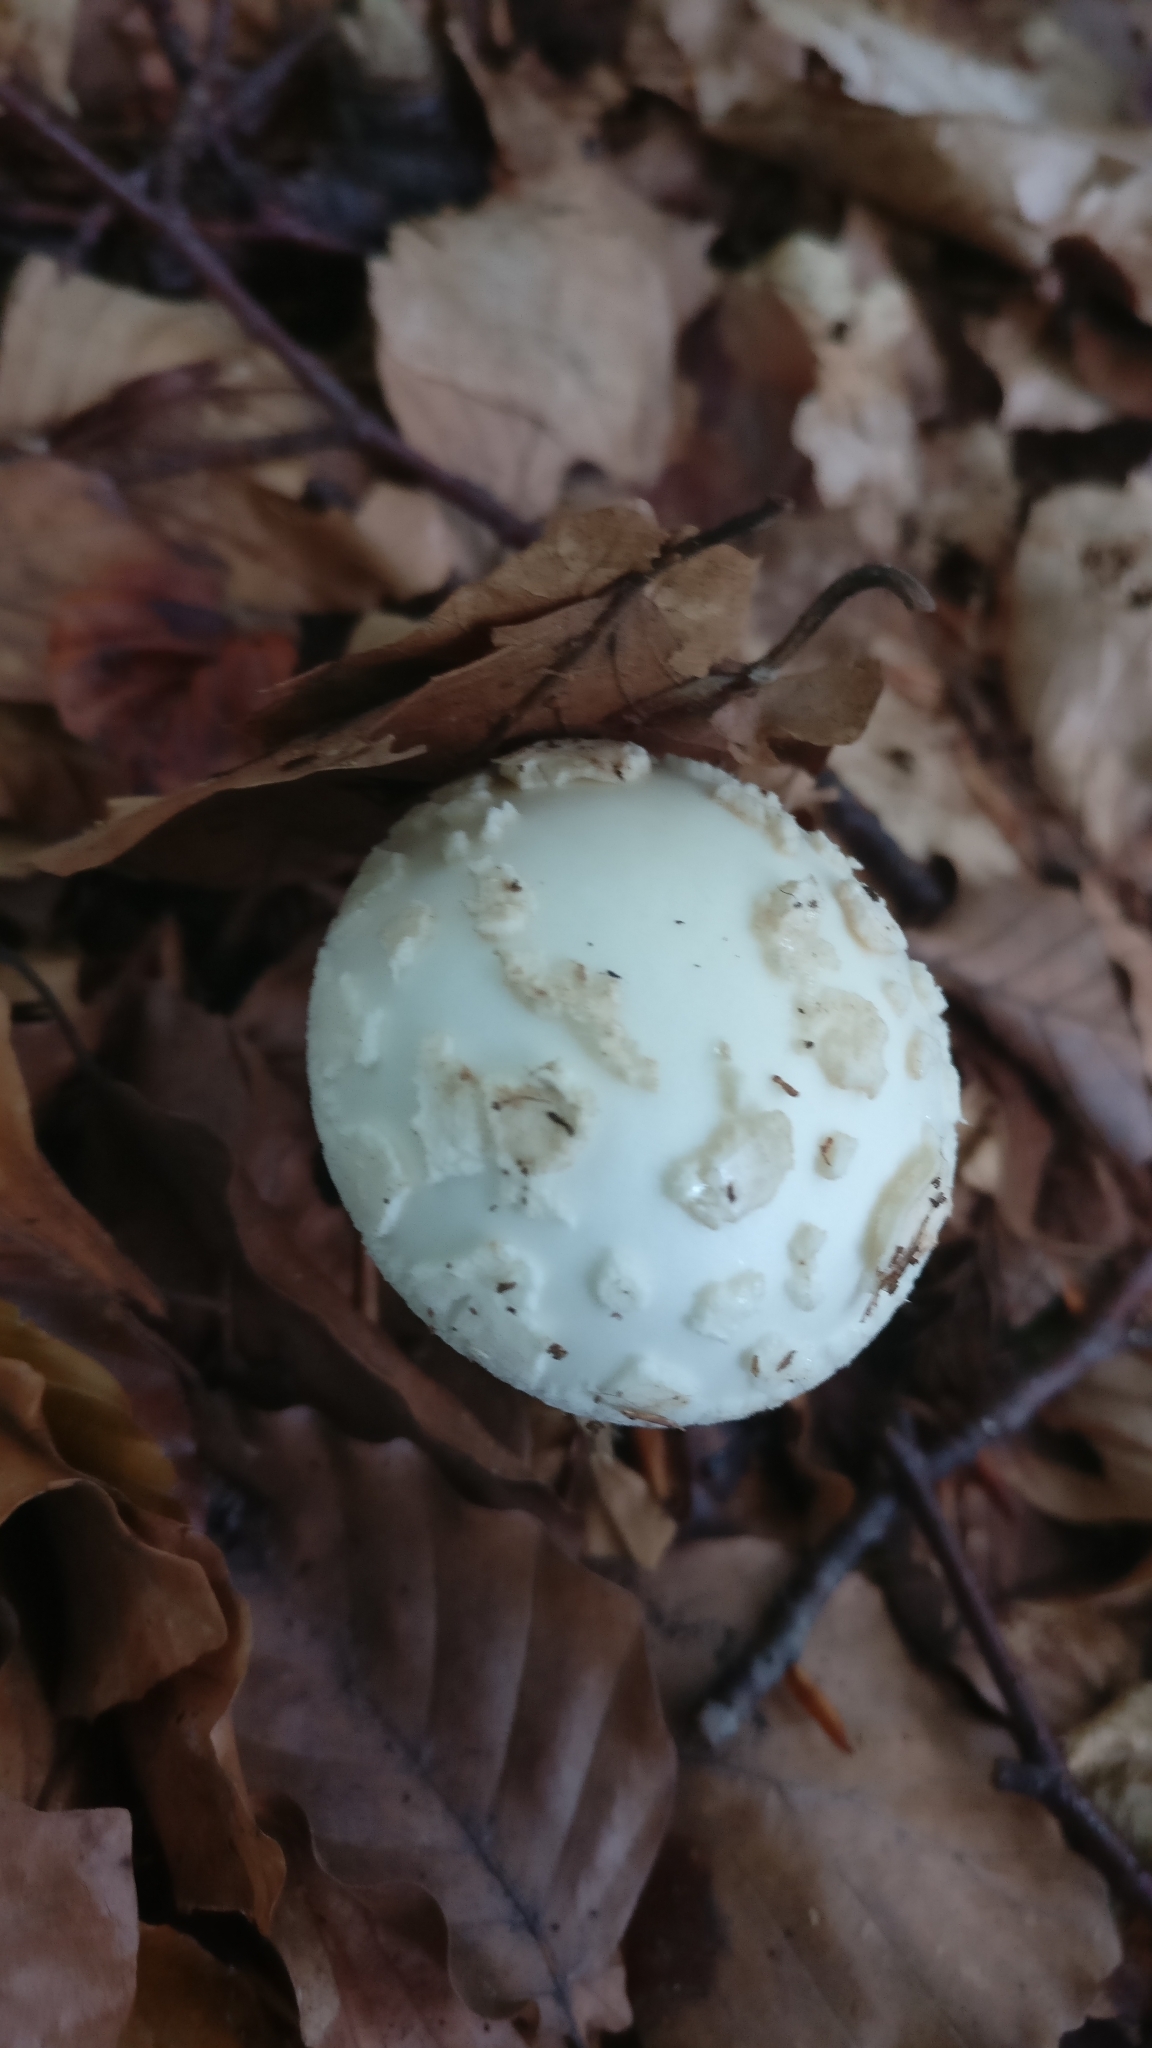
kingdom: Fungi
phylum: Basidiomycota
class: Agaricomycetes
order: Agaricales
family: Amanitaceae
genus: Amanita
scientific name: Amanita citrina
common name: False death-cap
